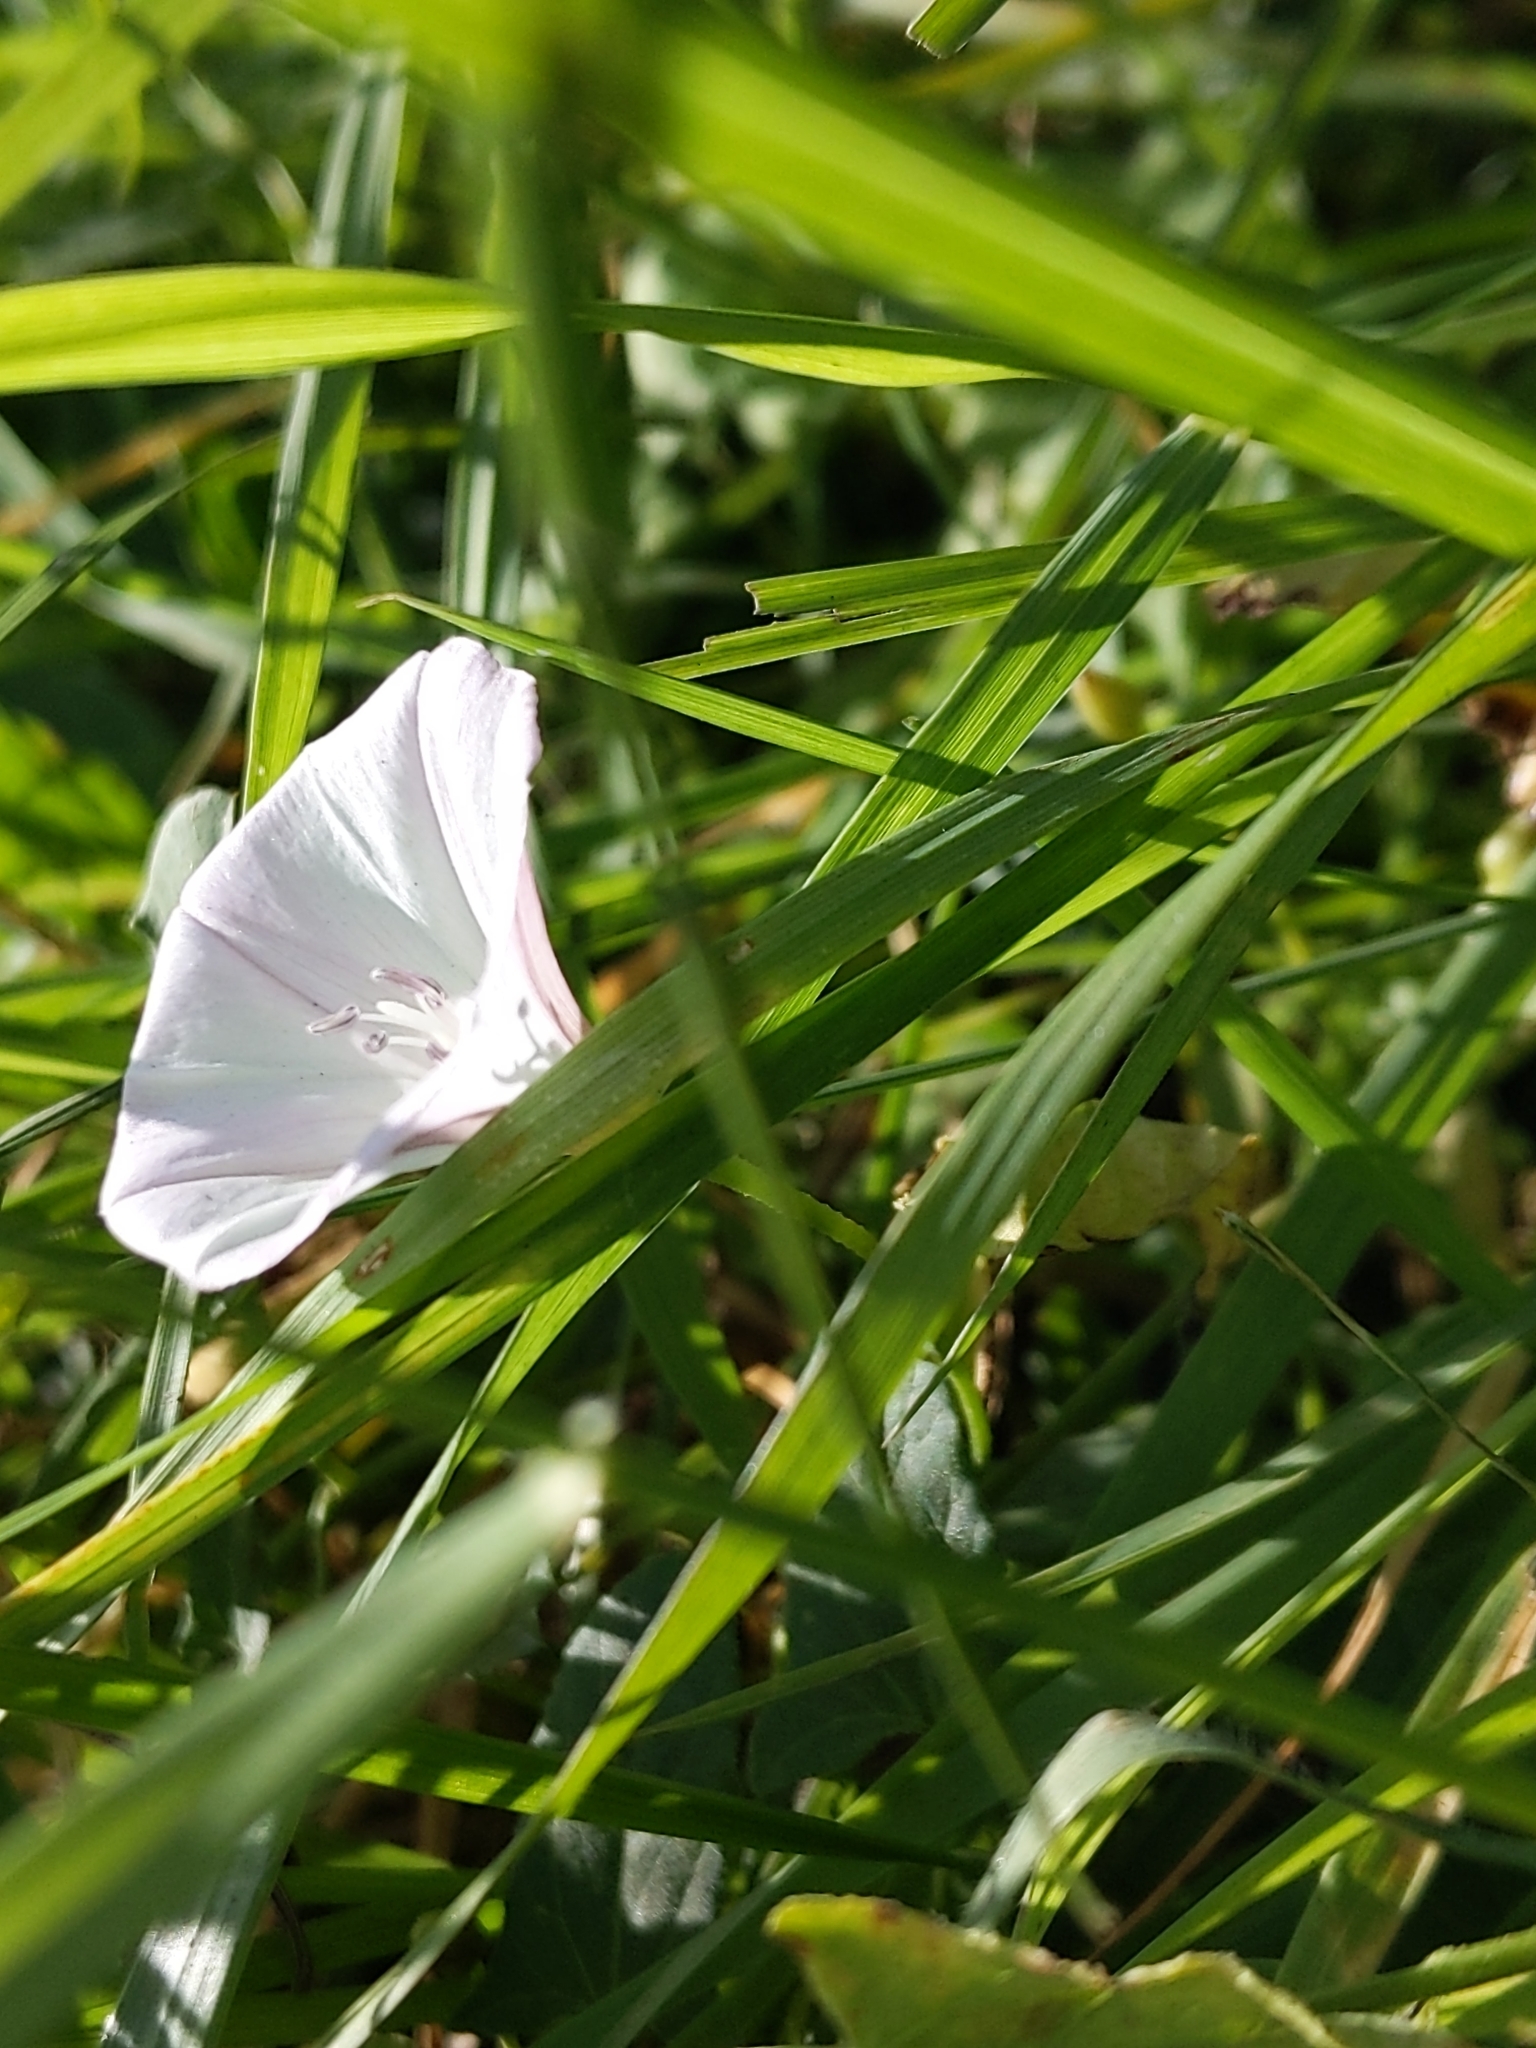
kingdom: Plantae
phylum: Tracheophyta
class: Magnoliopsida
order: Solanales
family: Convolvulaceae
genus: Convolvulus
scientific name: Convolvulus arvensis
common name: Field bindweed
